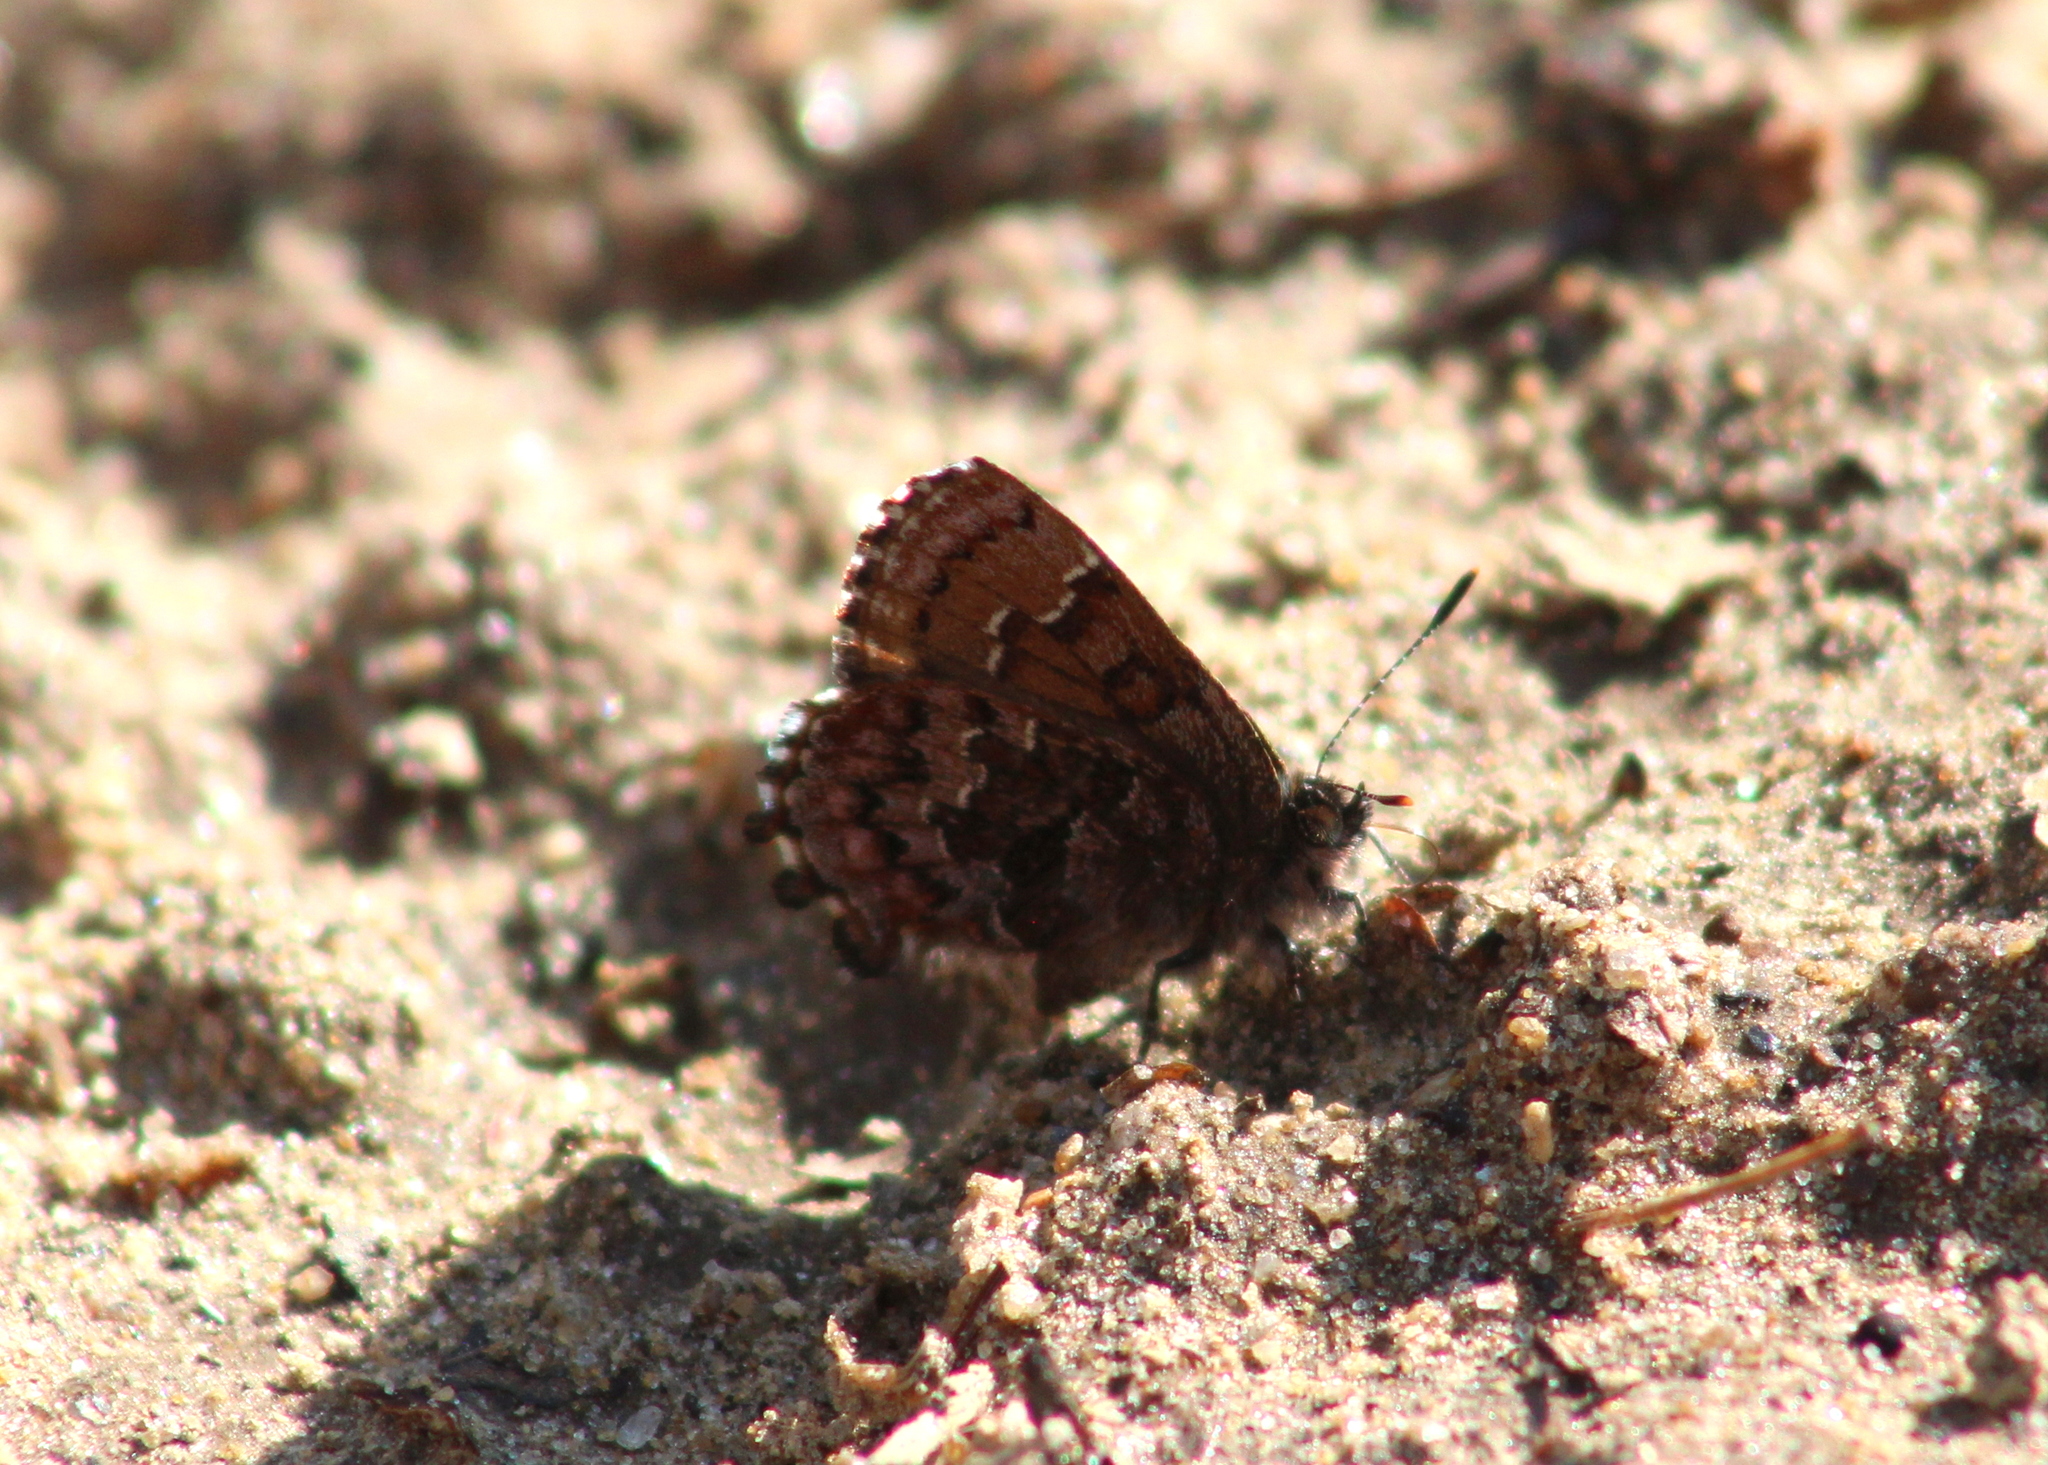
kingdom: Animalia
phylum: Arthropoda
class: Insecta
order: Lepidoptera
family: Lycaenidae
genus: Incisalia
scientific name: Incisalia niphon
